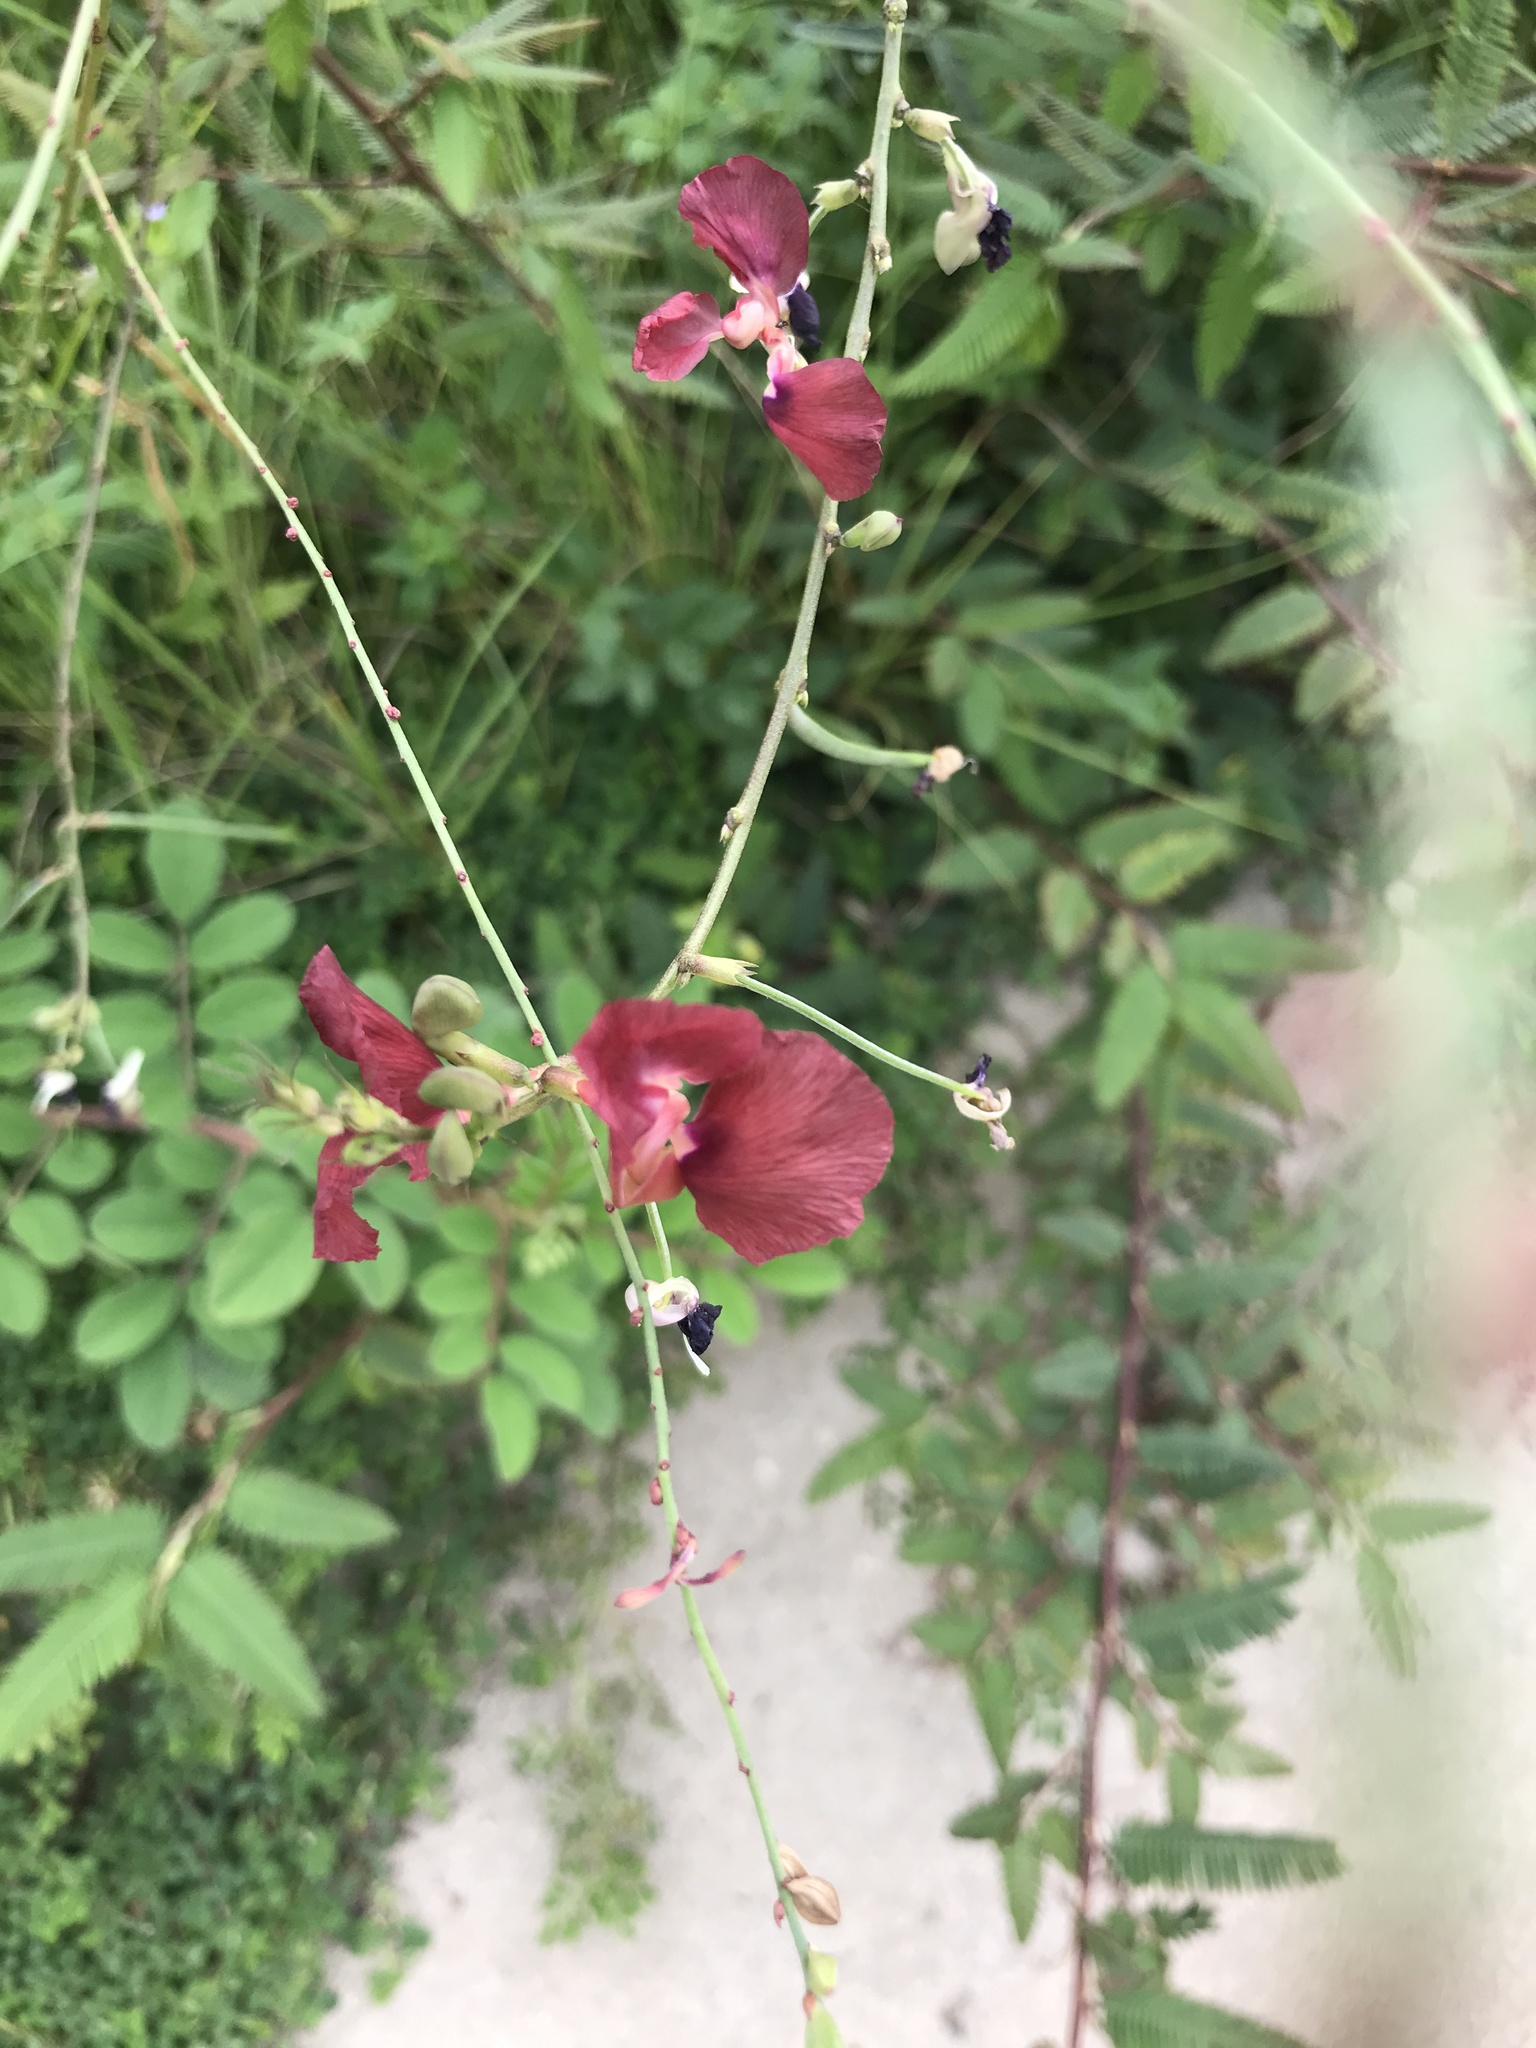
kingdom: Plantae
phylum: Tracheophyta
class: Magnoliopsida
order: Fabales
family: Fabaceae
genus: Macroptilium
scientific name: Macroptilium lathyroides
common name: Wild bushbean
